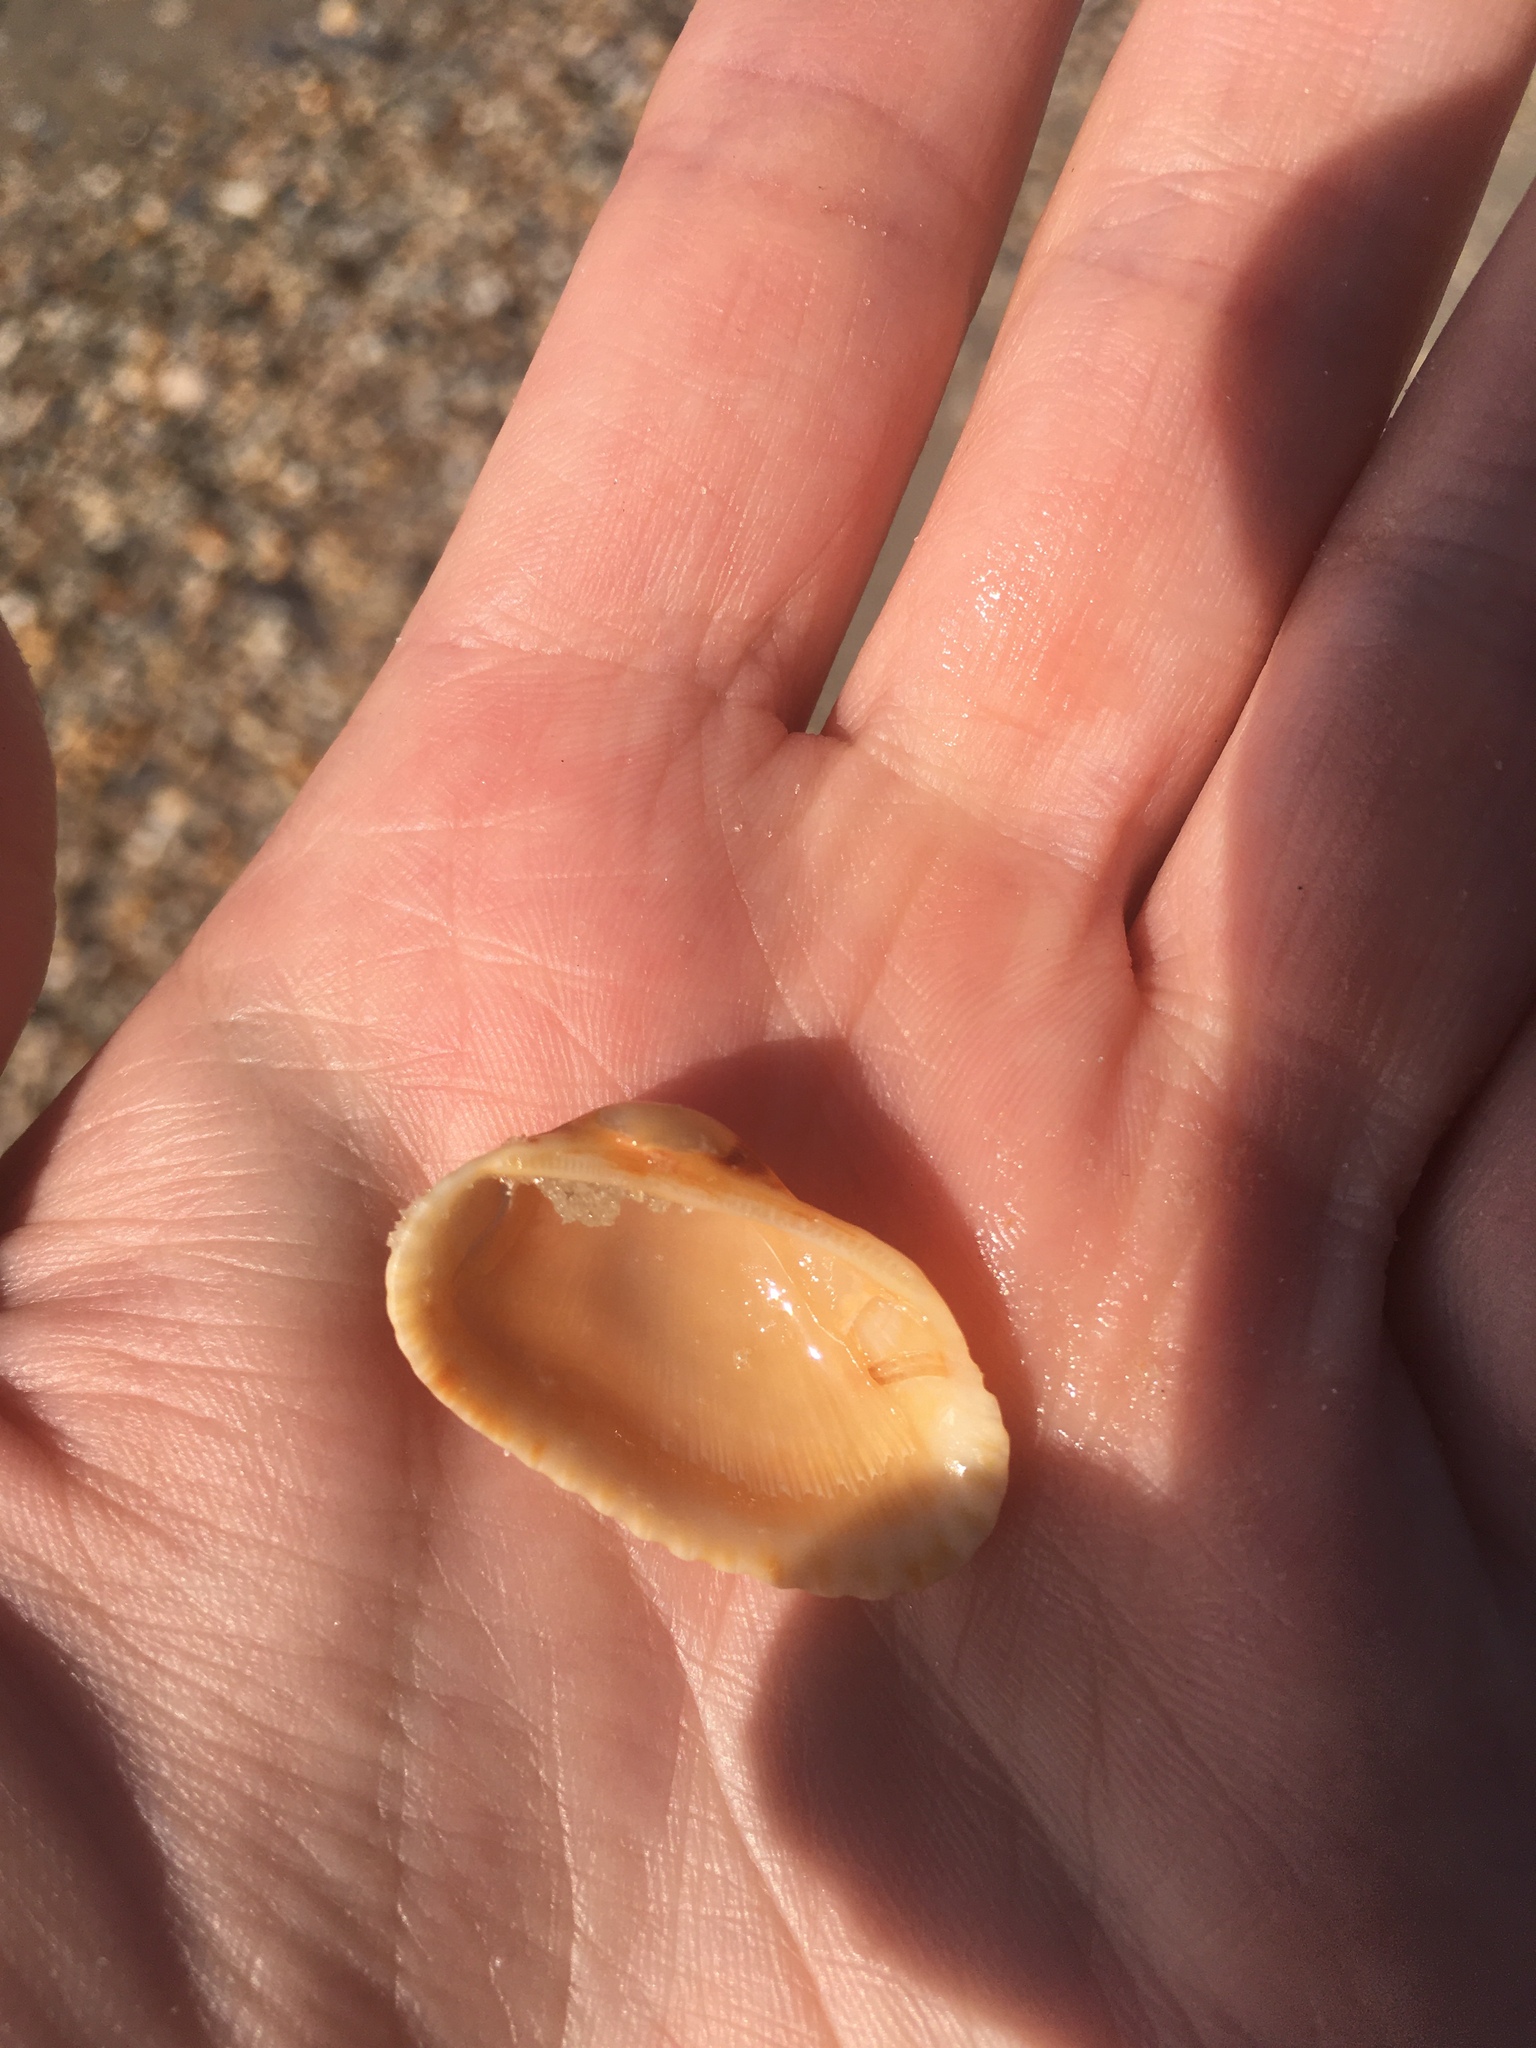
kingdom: Animalia
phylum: Mollusca
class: Bivalvia
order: Arcida
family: Arcidae
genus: Anadara
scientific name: Anadara transversa
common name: Transverse ark
